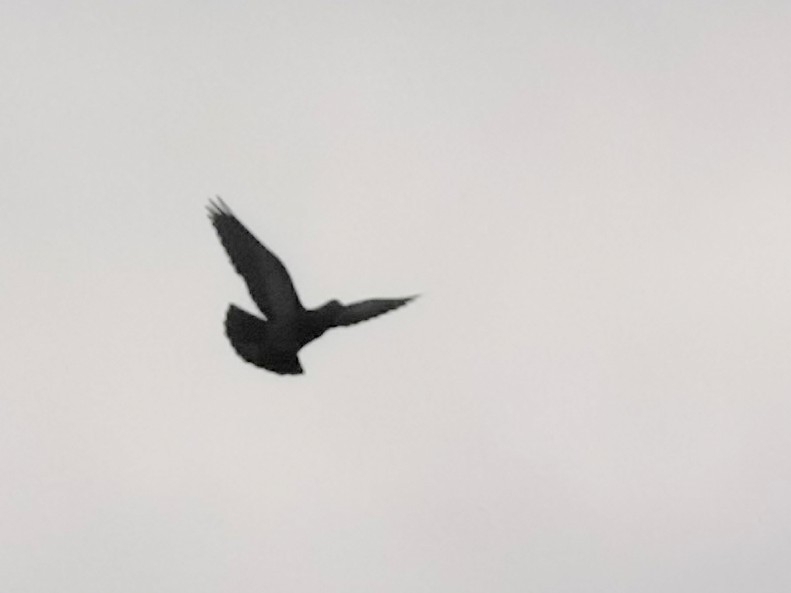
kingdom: Animalia
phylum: Chordata
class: Aves
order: Columbiformes
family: Columbidae
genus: Columba
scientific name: Columba livia
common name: Rock pigeon
